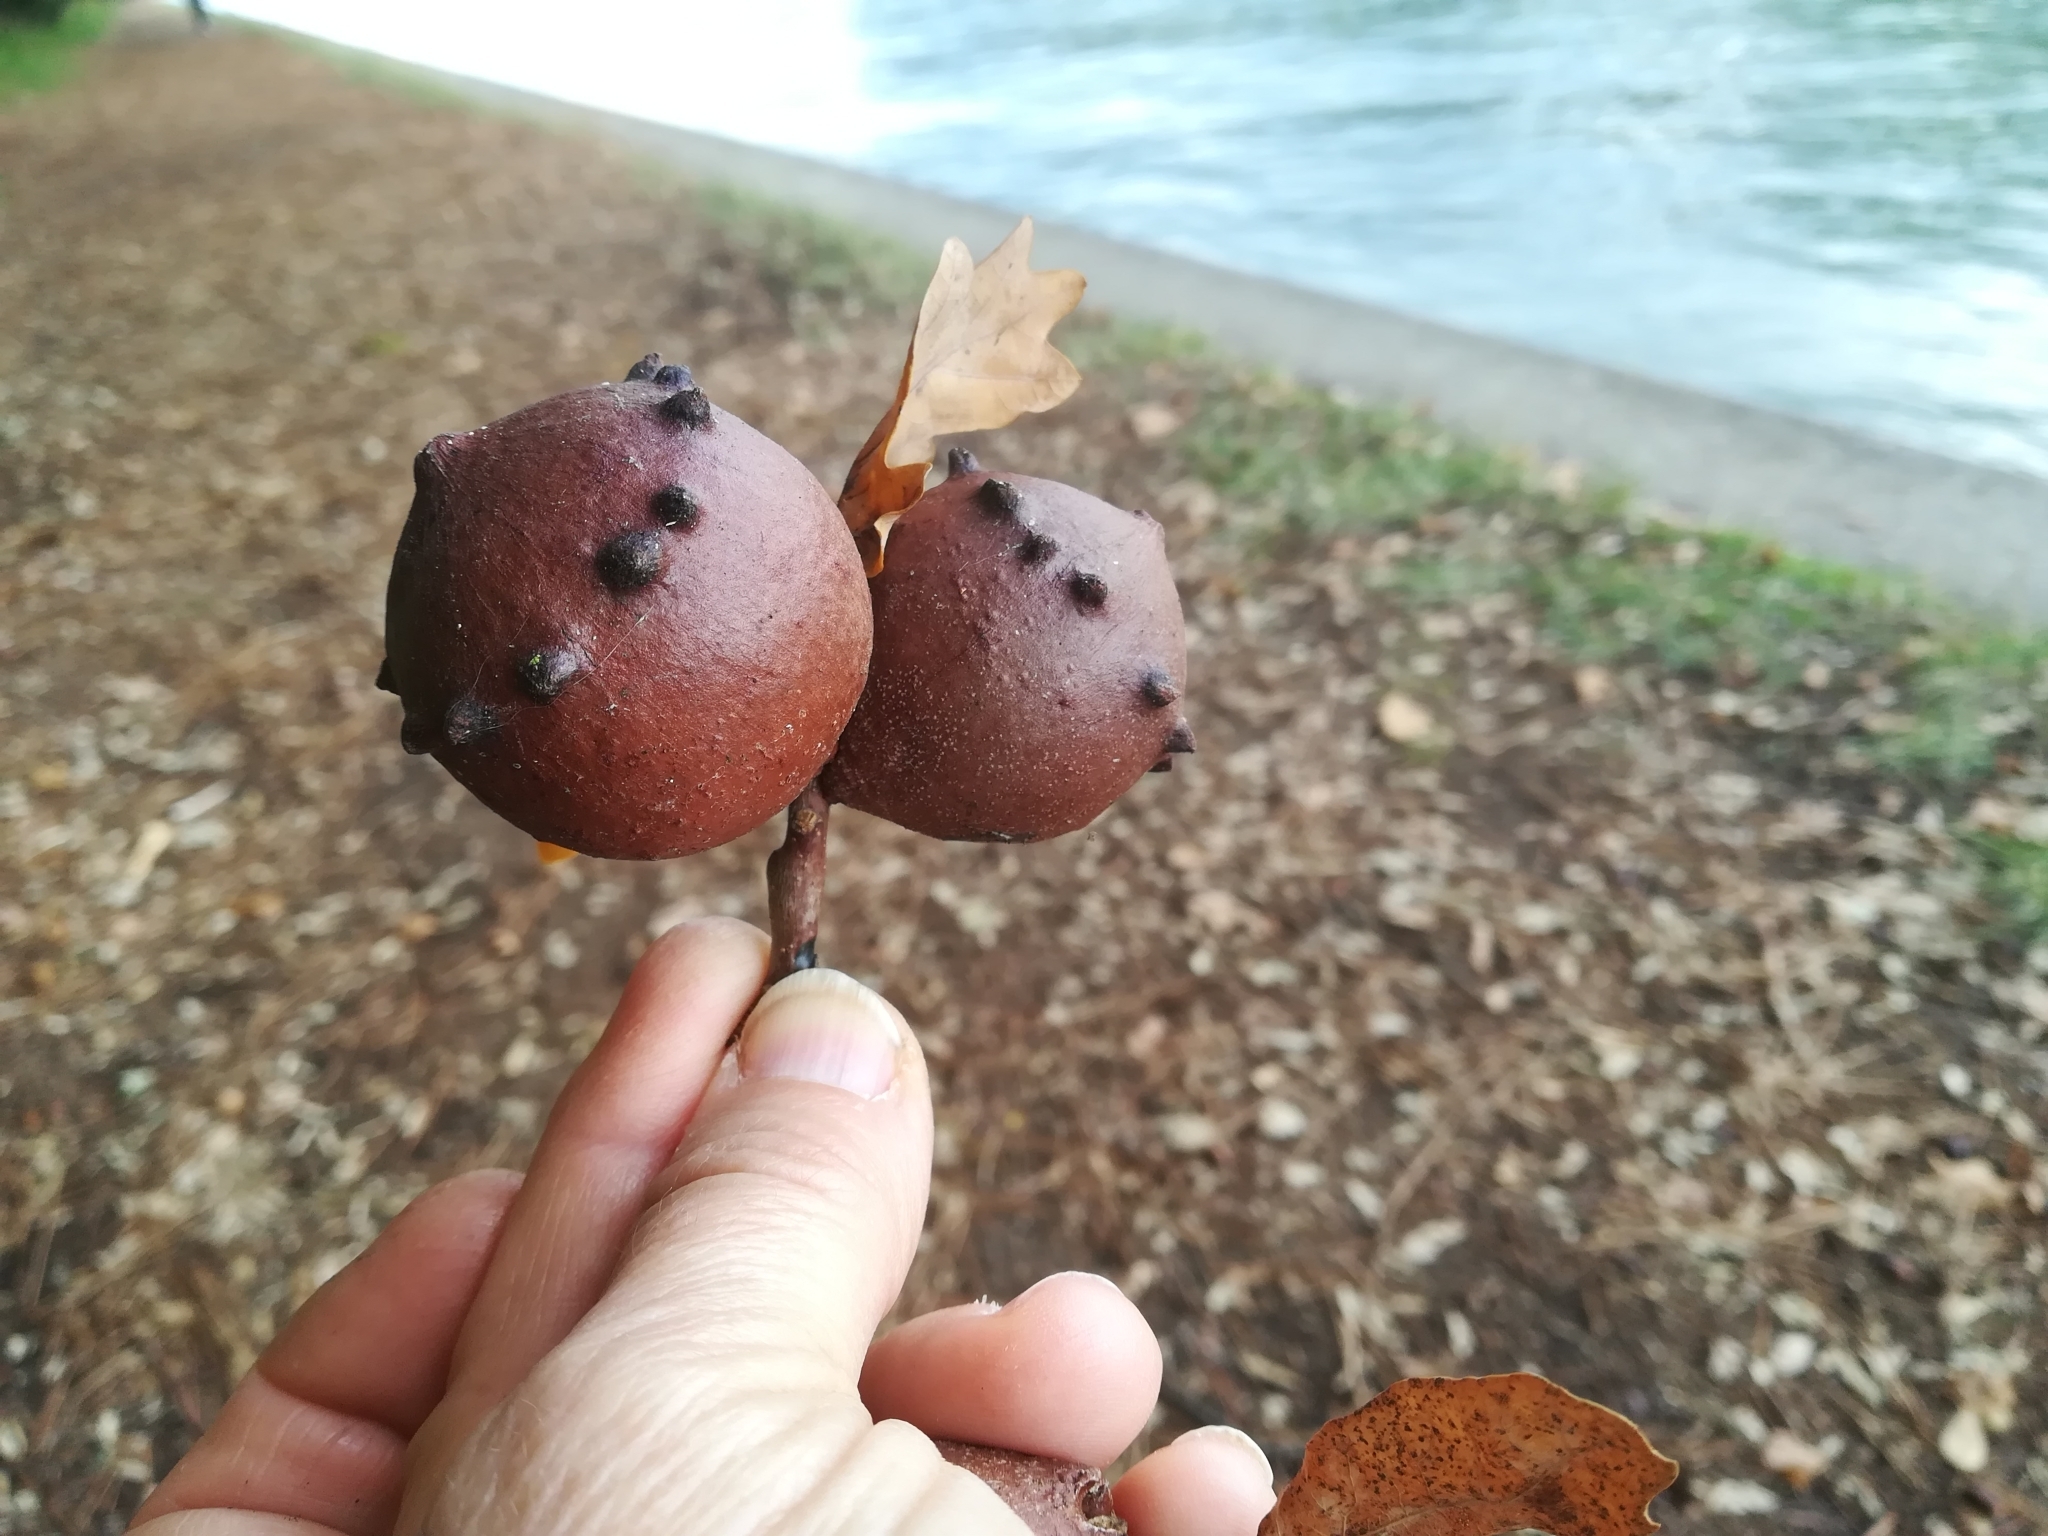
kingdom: Animalia
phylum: Arthropoda
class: Insecta
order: Hymenoptera
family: Cynipidae
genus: Andricus
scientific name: Andricus quercustozae
